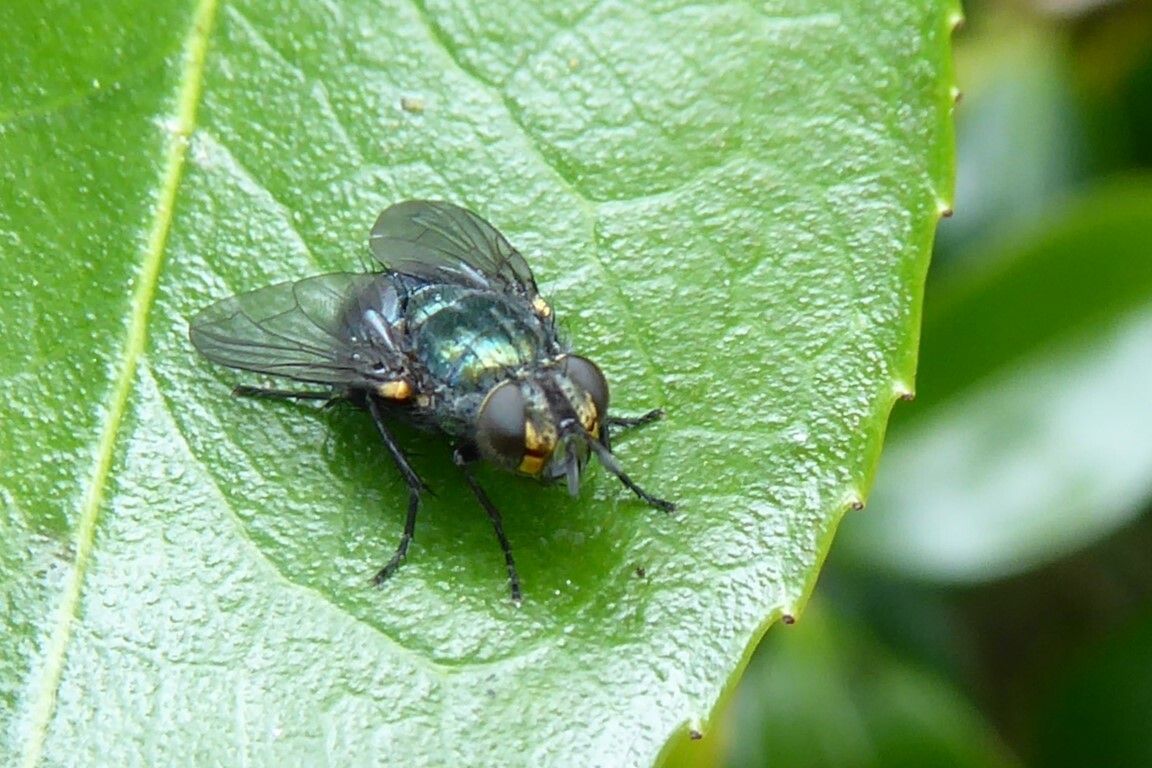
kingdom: Animalia
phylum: Arthropoda
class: Insecta
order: Diptera
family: Tachinidae
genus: Pales
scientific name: Pales aurea
